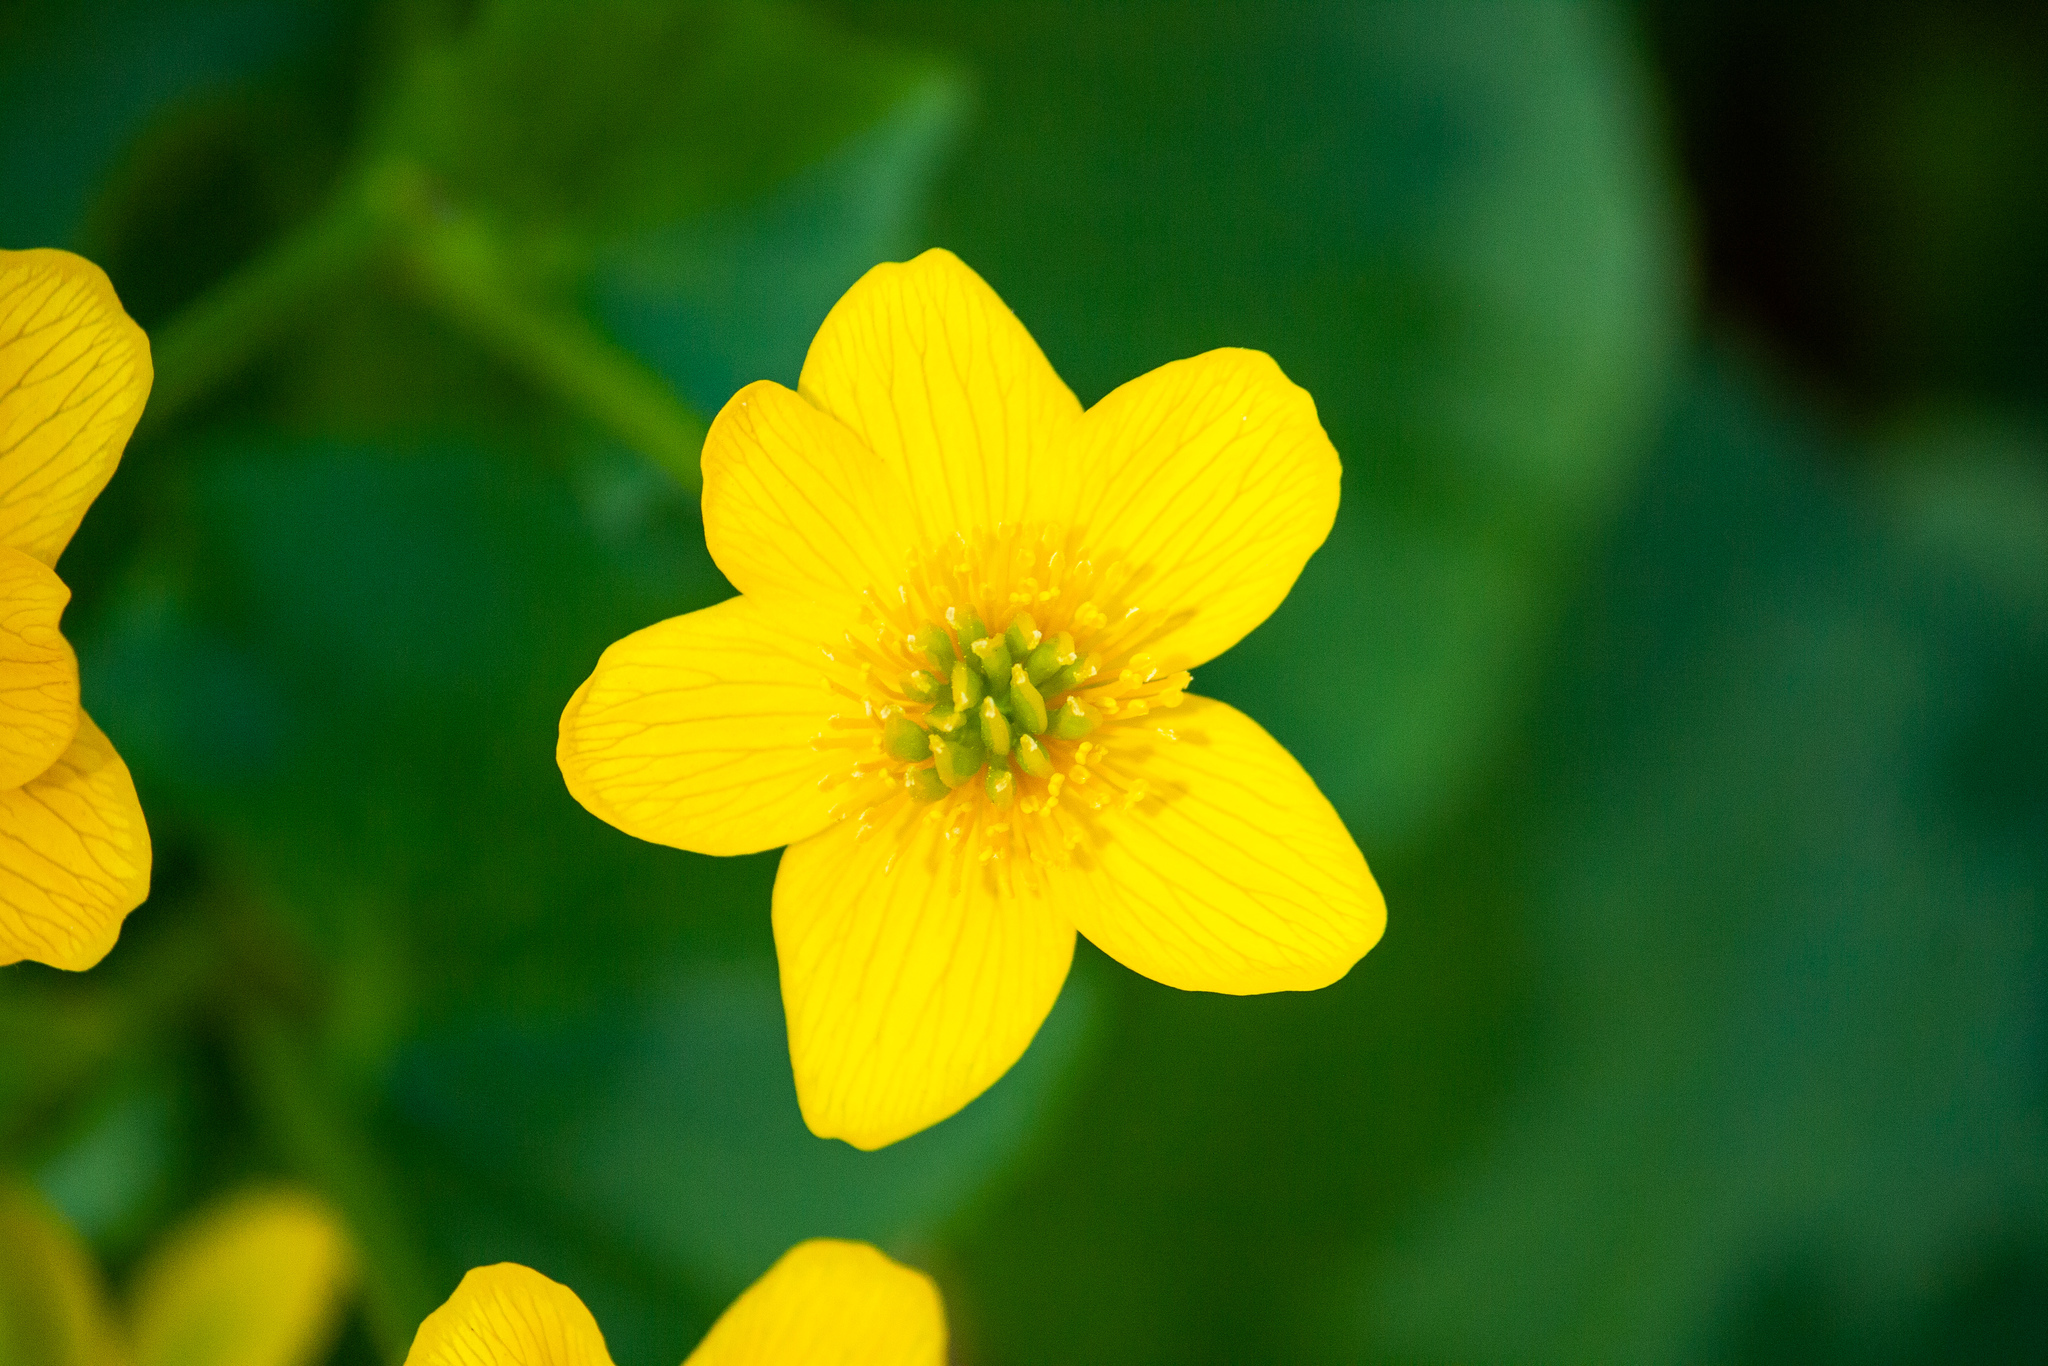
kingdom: Plantae
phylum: Tracheophyta
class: Magnoliopsida
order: Ranunculales
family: Ranunculaceae
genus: Caltha
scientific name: Caltha palustris
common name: Marsh marigold
